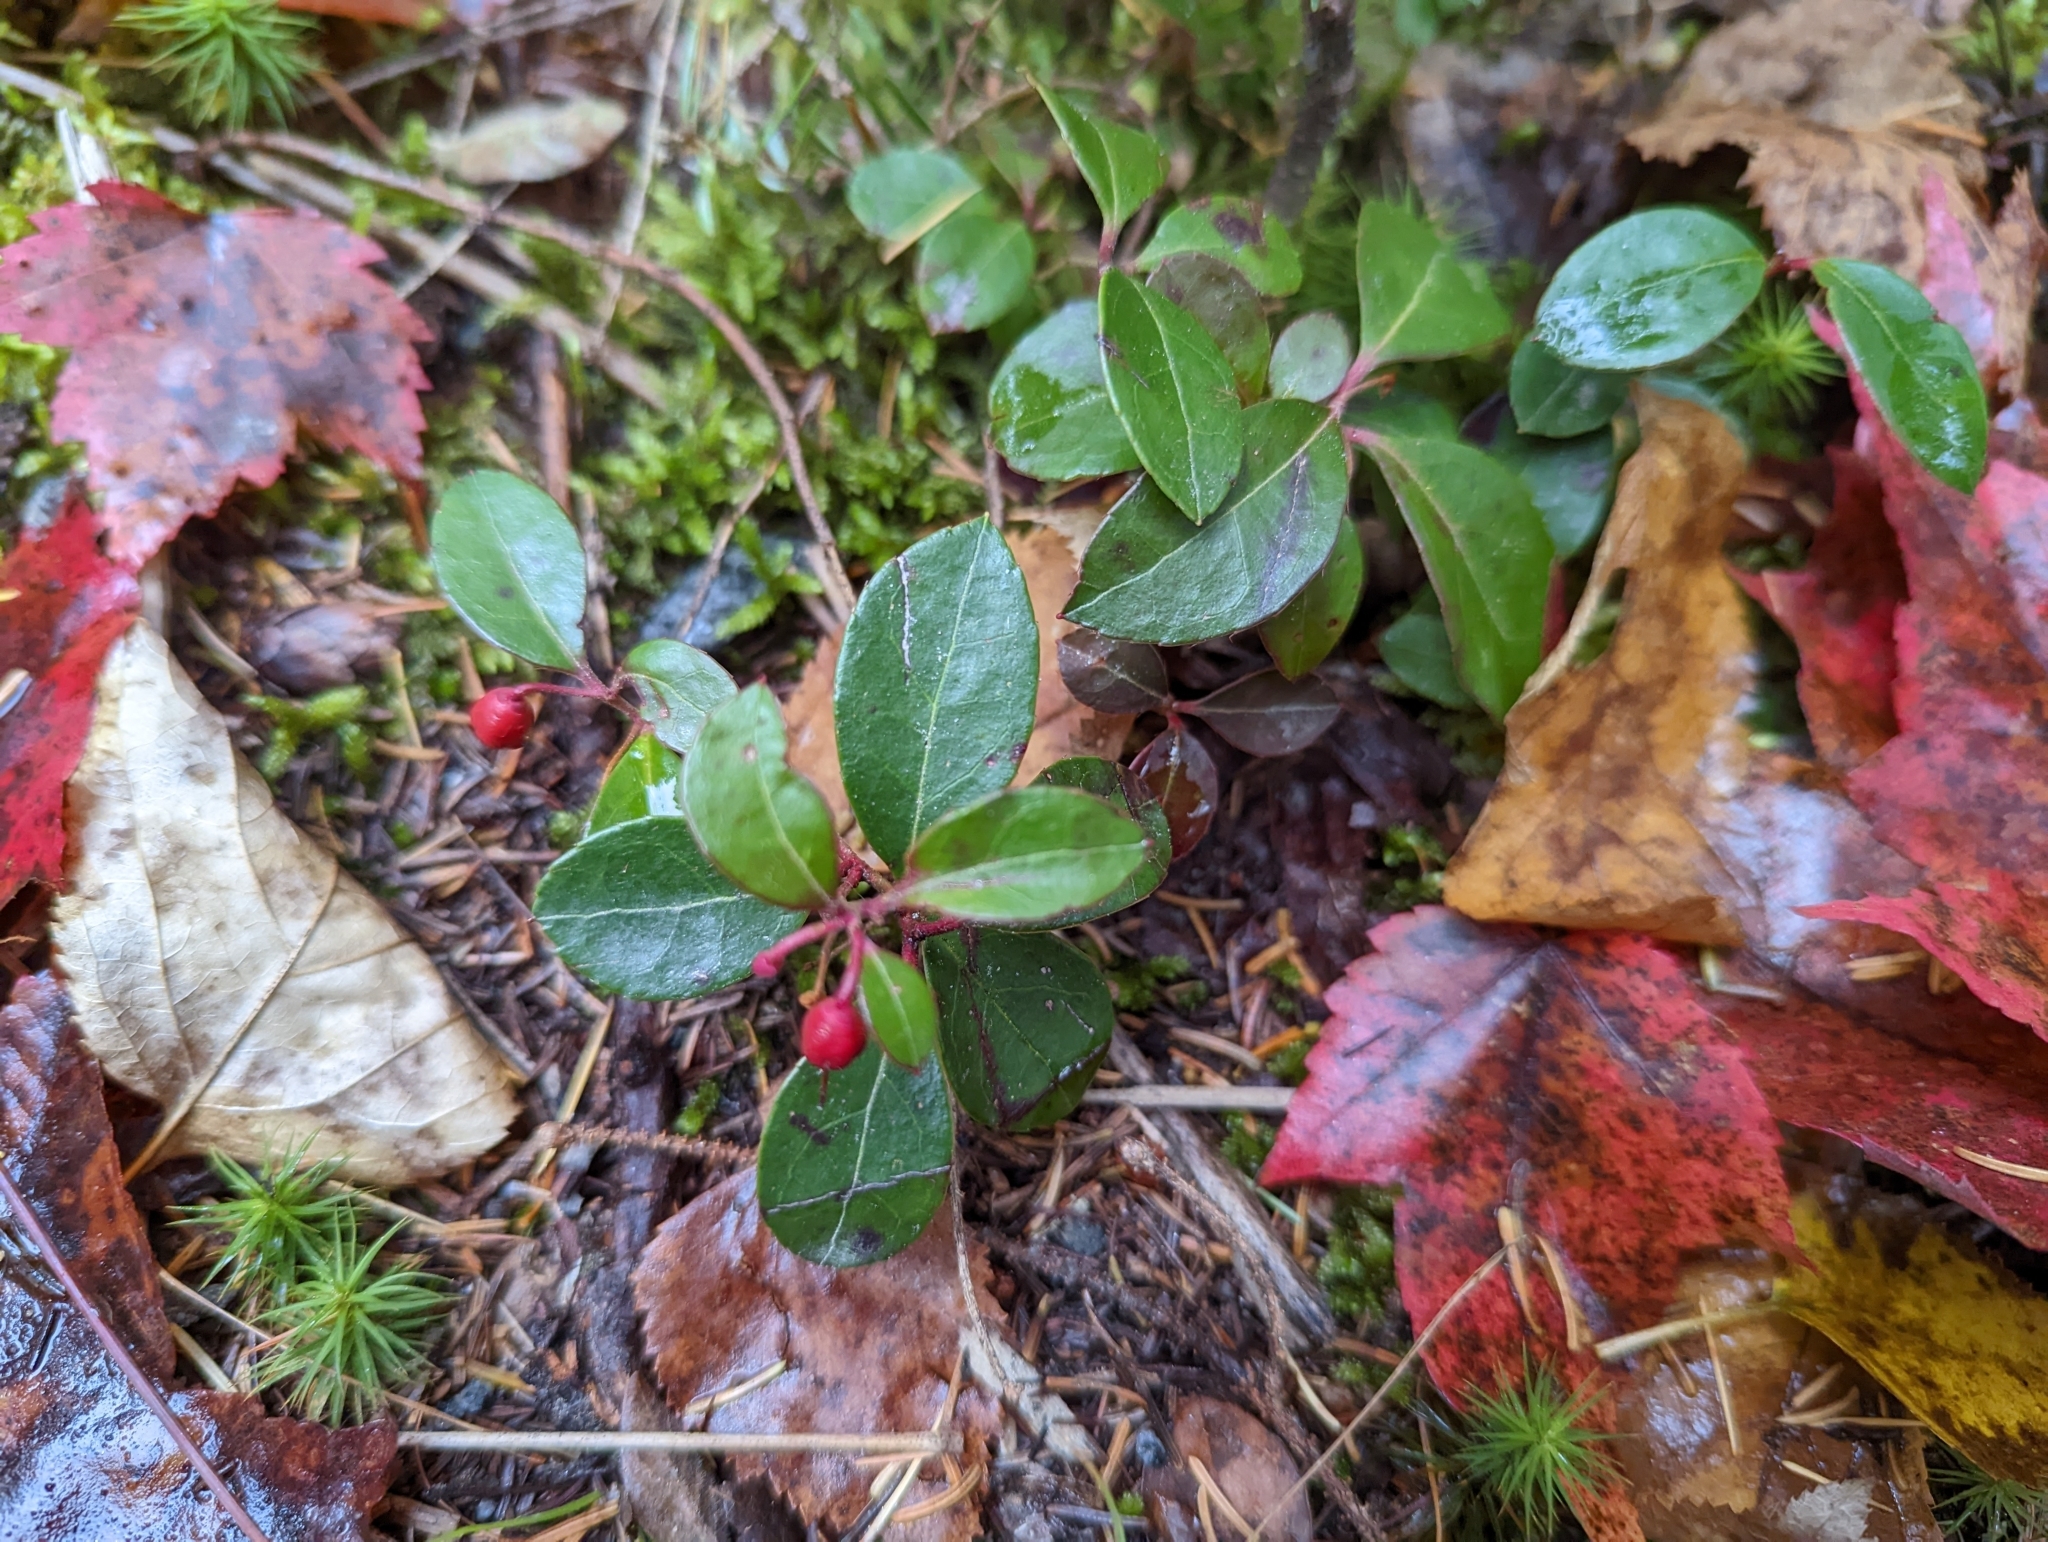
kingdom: Plantae
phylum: Tracheophyta
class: Magnoliopsida
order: Ericales
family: Ericaceae
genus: Gaultheria
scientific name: Gaultheria procumbens
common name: Checkerberry
